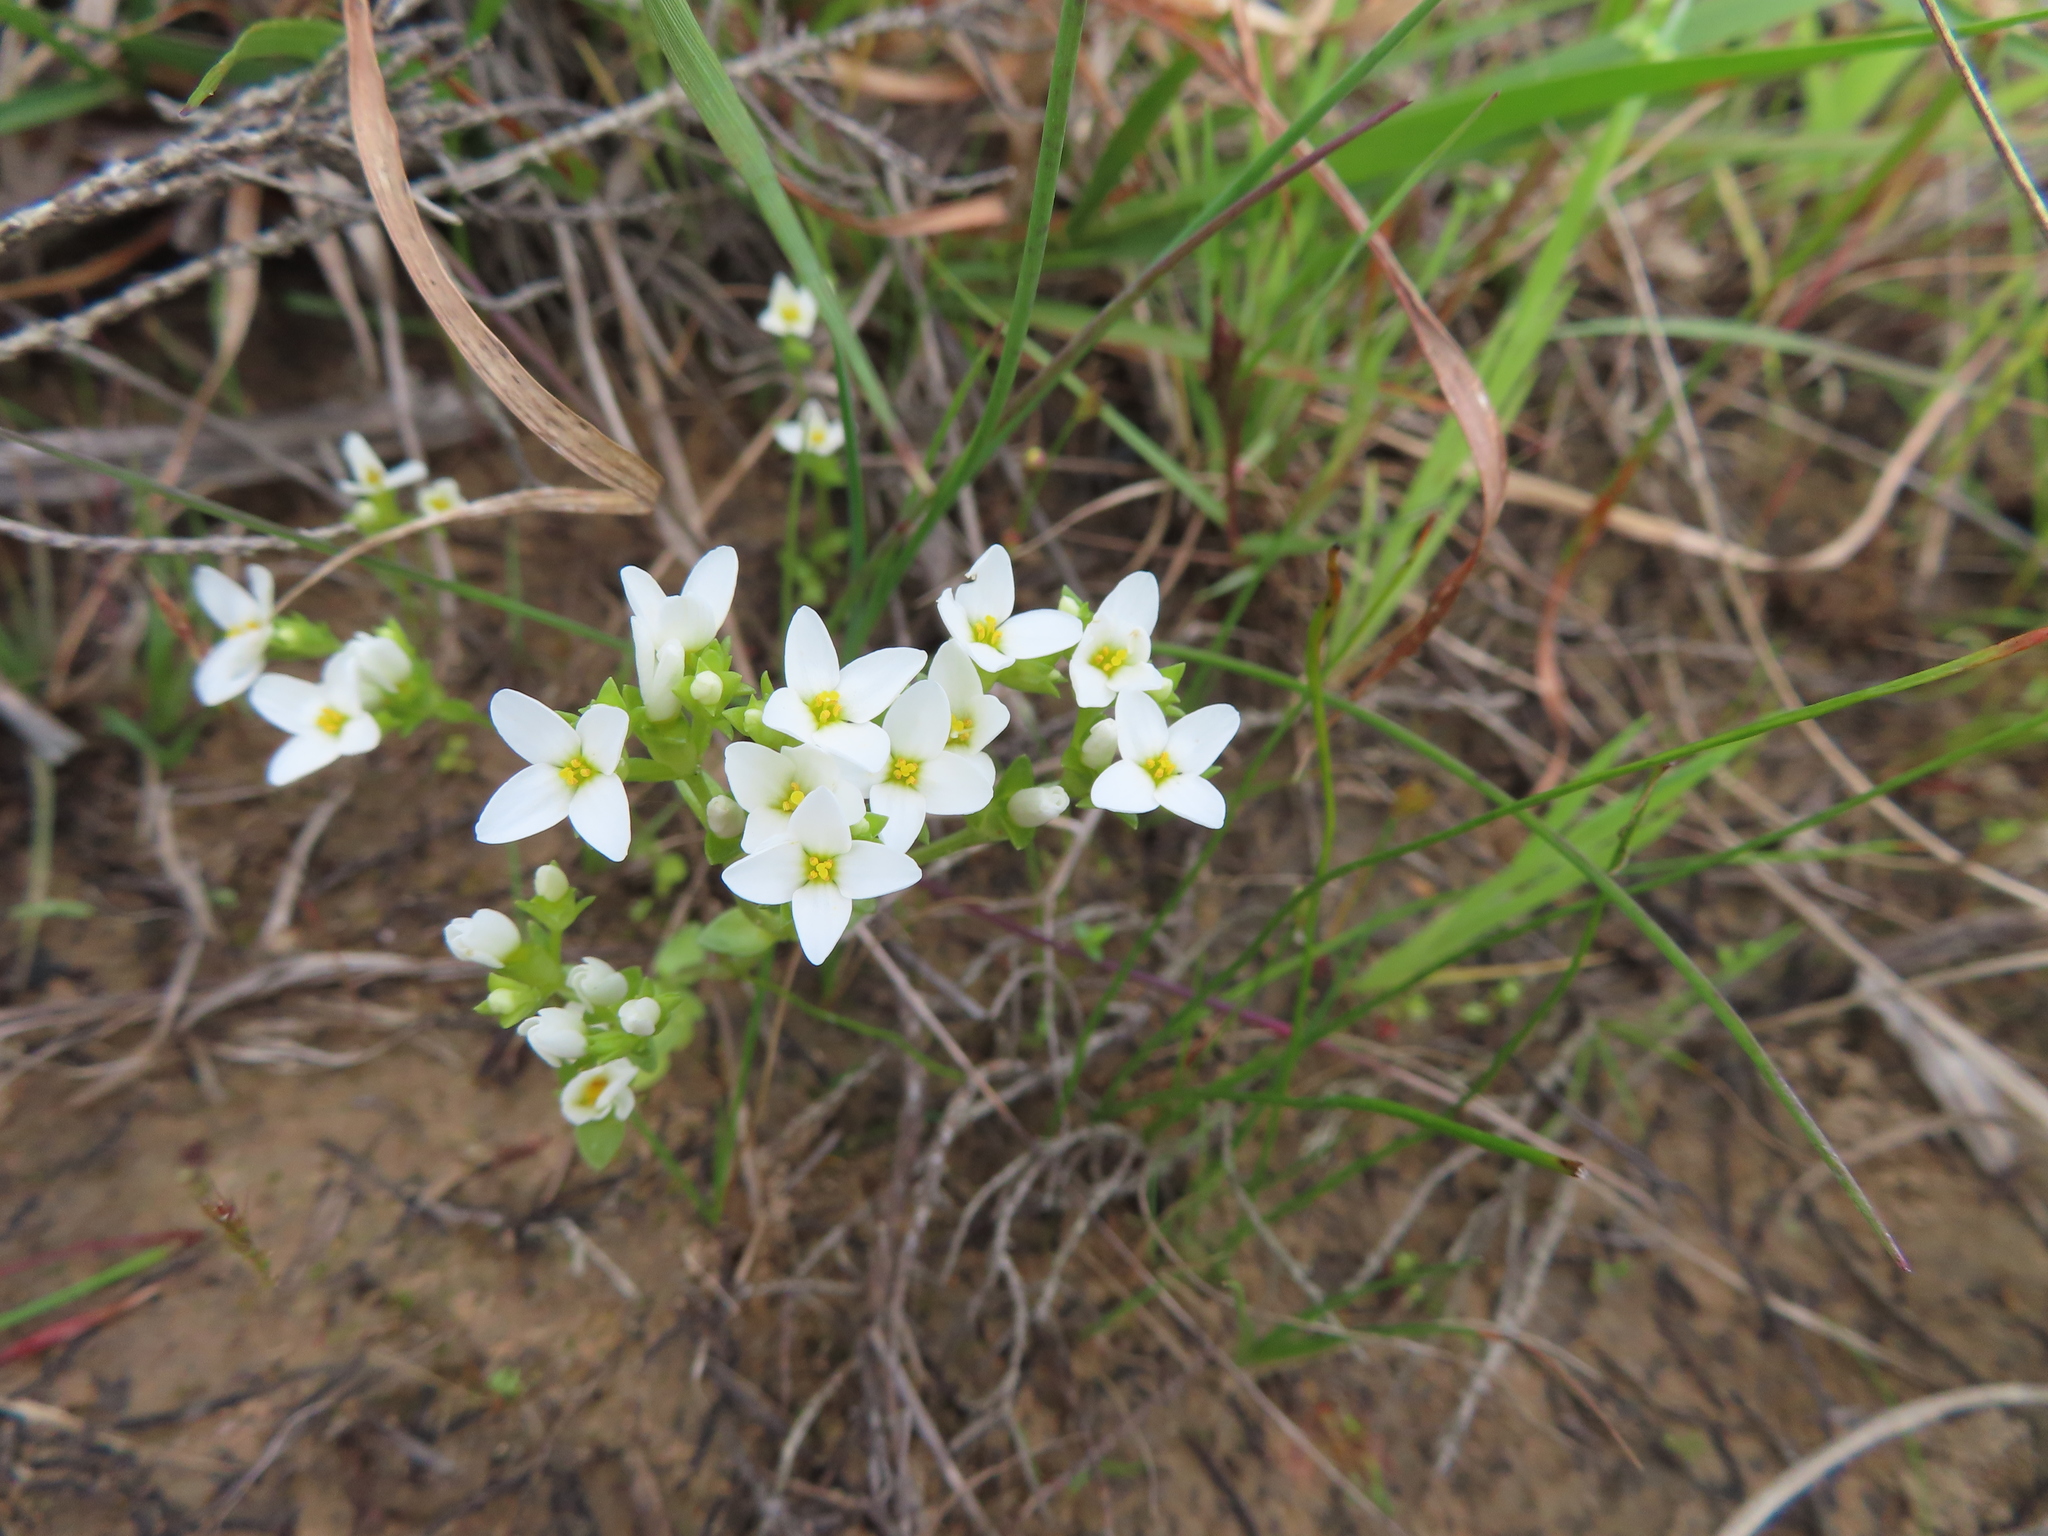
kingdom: Plantae
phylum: Tracheophyta
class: Magnoliopsida
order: Gentianales
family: Gentianaceae
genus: Sebaea
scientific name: Sebaea albens
